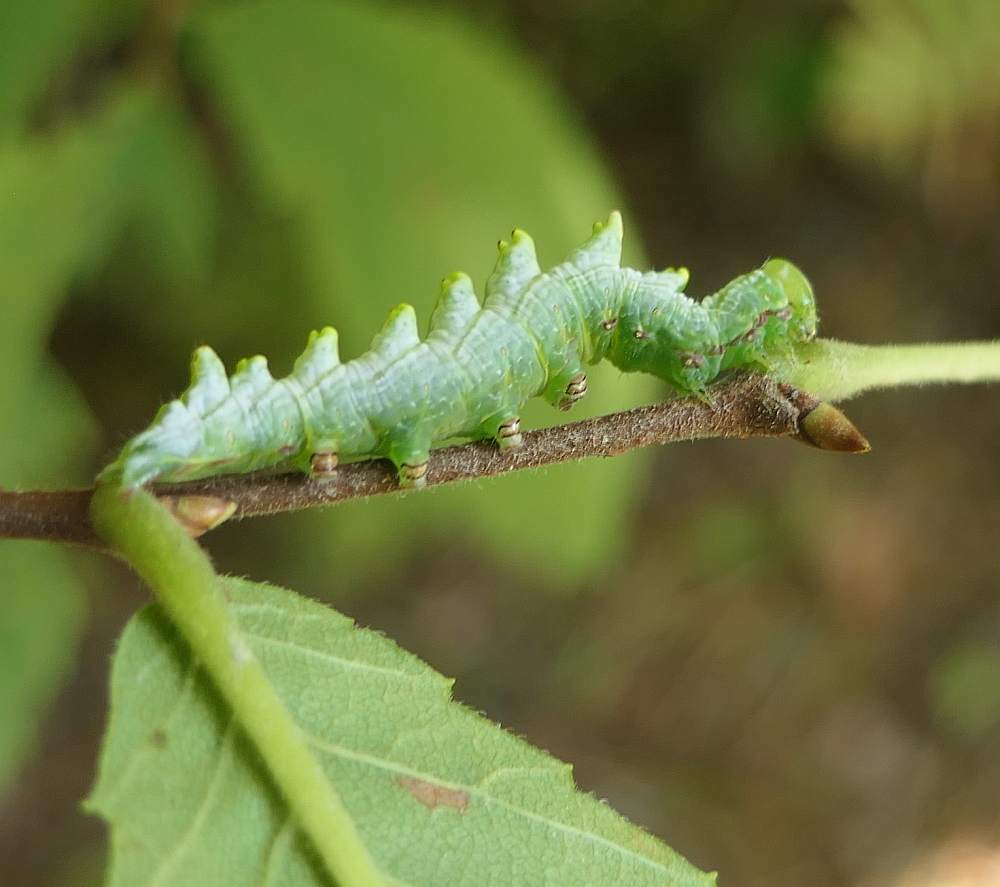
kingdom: Animalia
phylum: Arthropoda
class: Insecta
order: Lepidoptera
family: Notodontidae
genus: Nerice
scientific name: Nerice bidentata
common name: Double-toothed prominent
